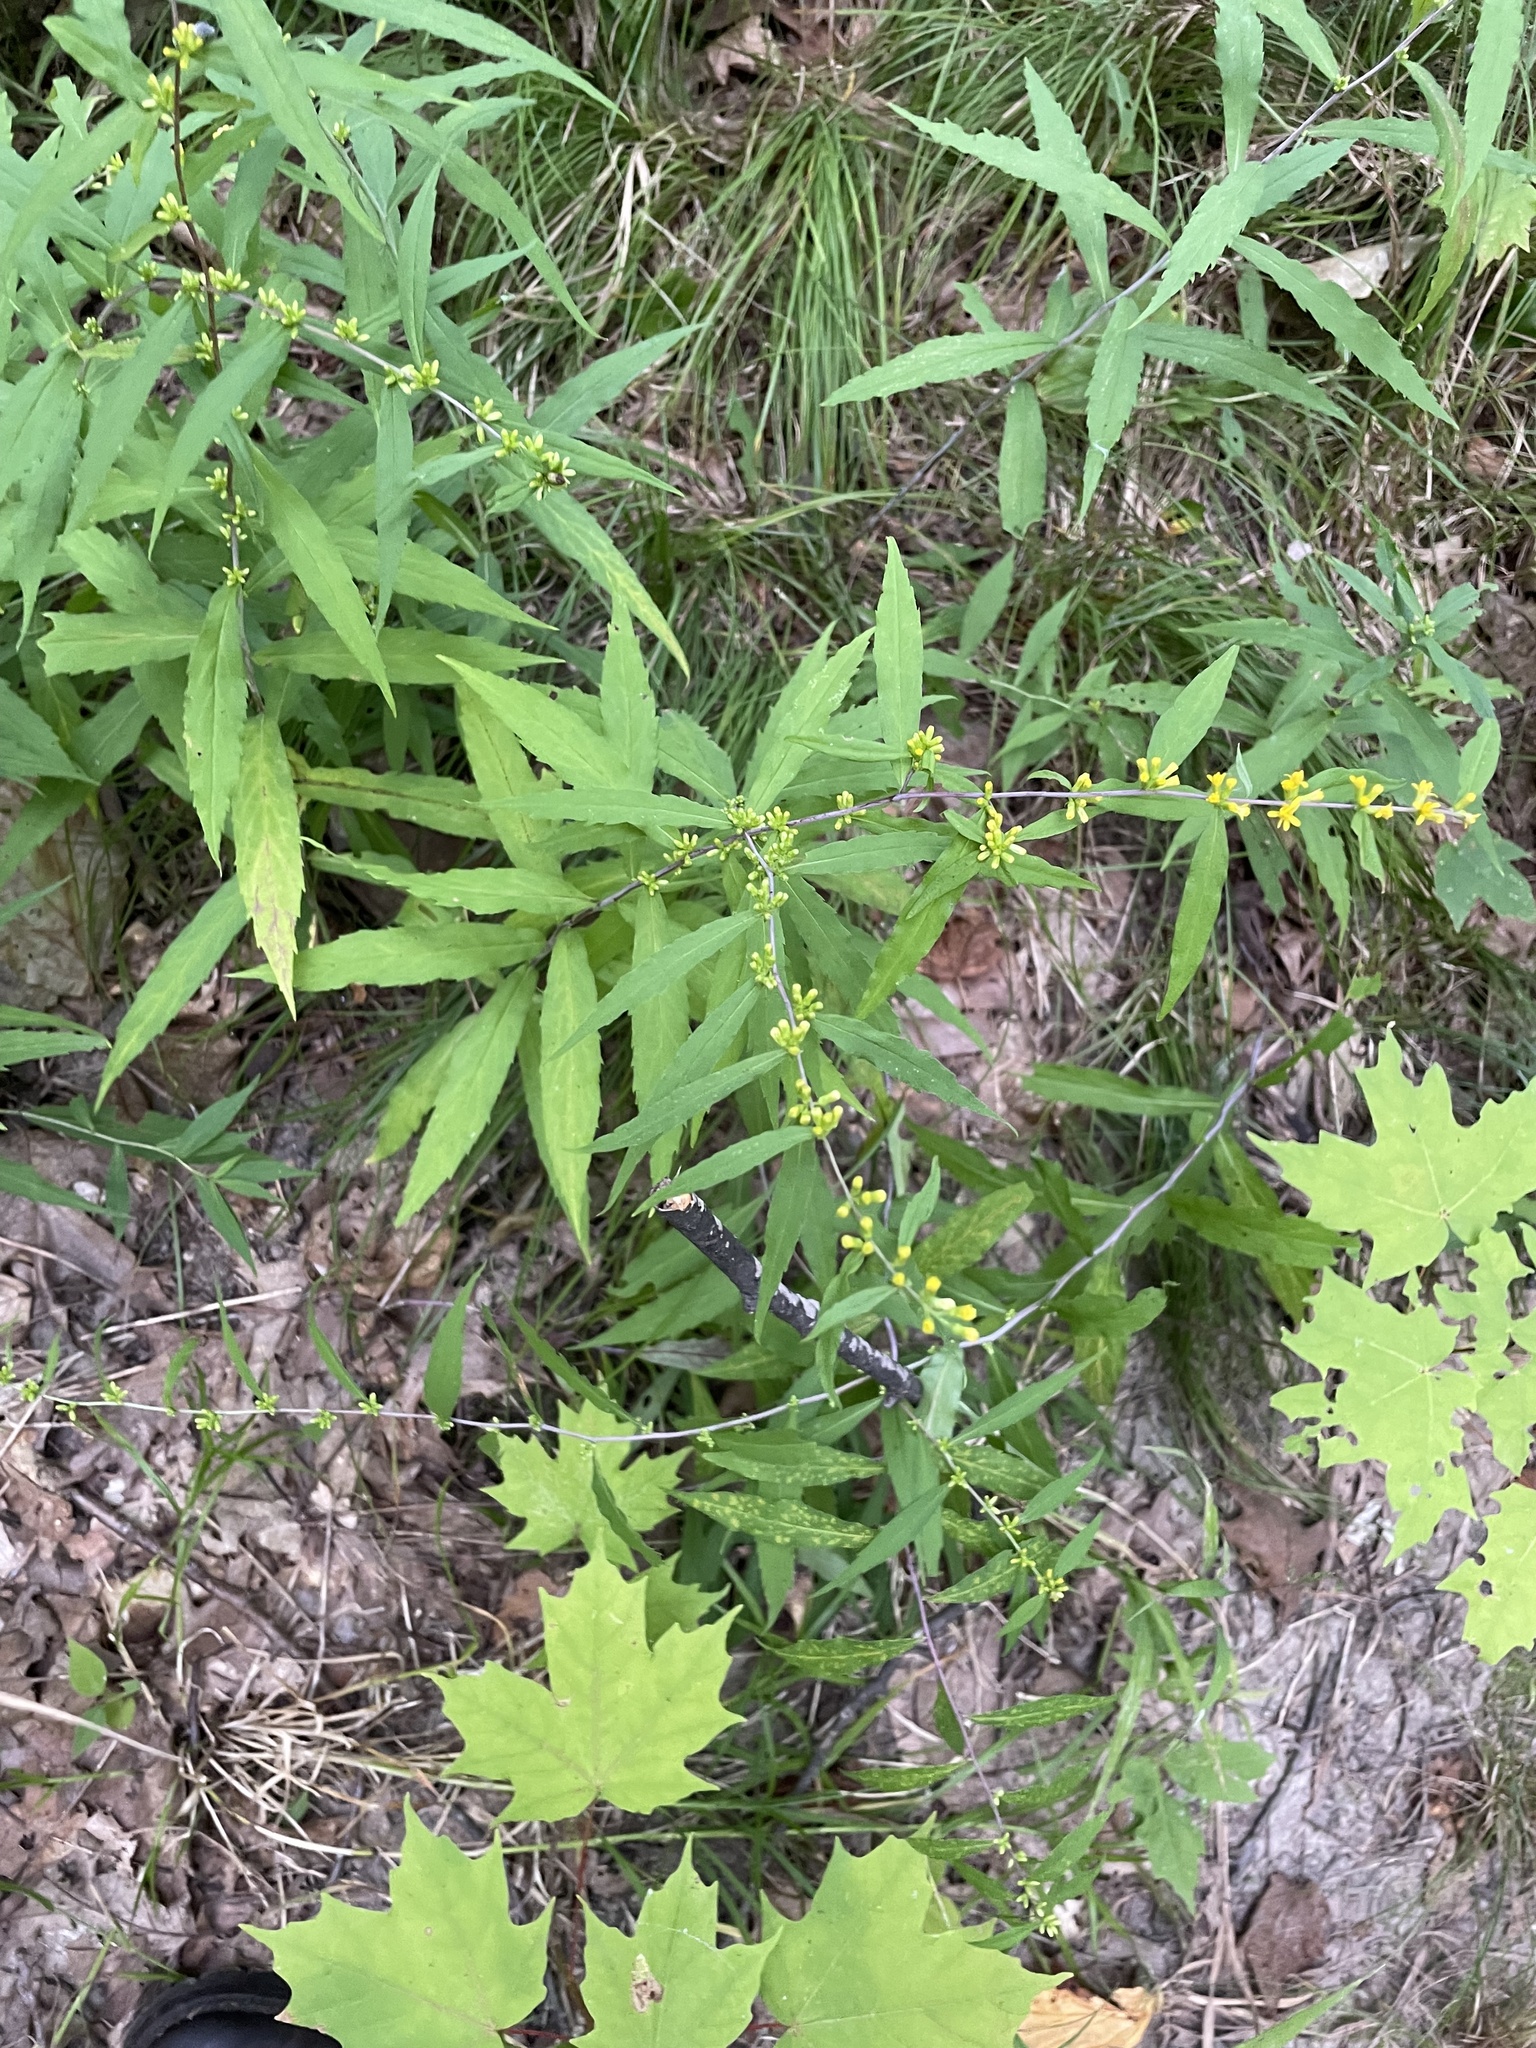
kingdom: Plantae
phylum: Tracheophyta
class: Magnoliopsida
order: Asterales
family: Asteraceae
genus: Solidago
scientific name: Solidago caesia
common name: Woodland goldenrod
